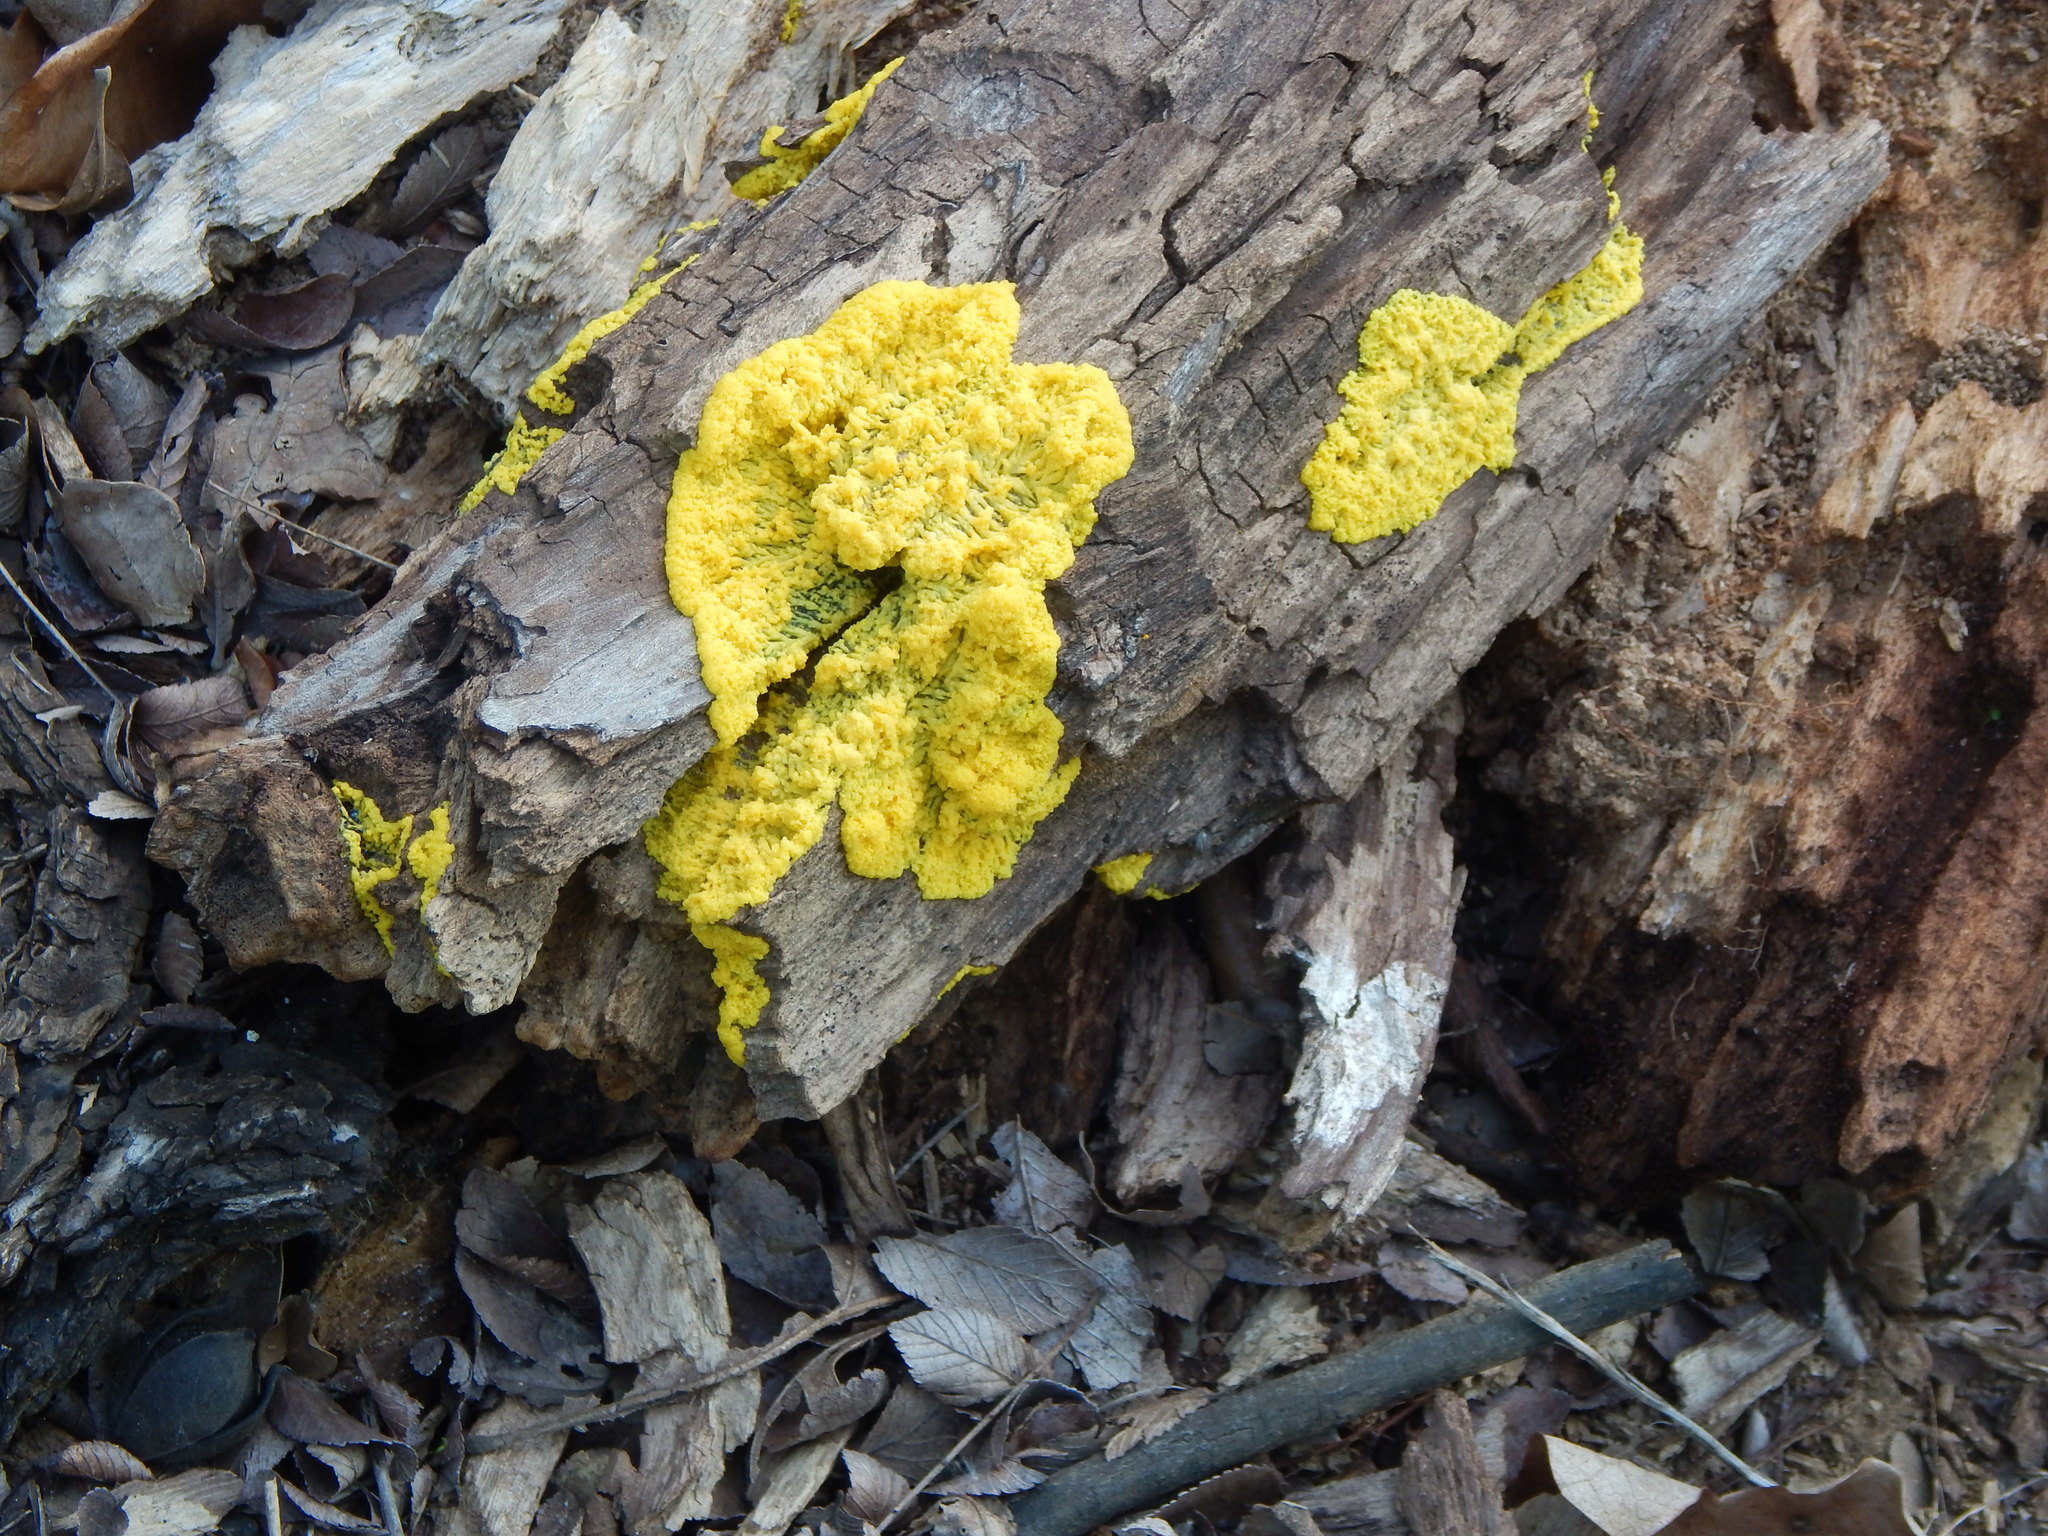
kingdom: Protozoa
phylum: Mycetozoa
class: Myxomycetes
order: Physarales
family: Physaraceae
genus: Fuligo
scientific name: Fuligo septica
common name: Dog vomit slime mold
